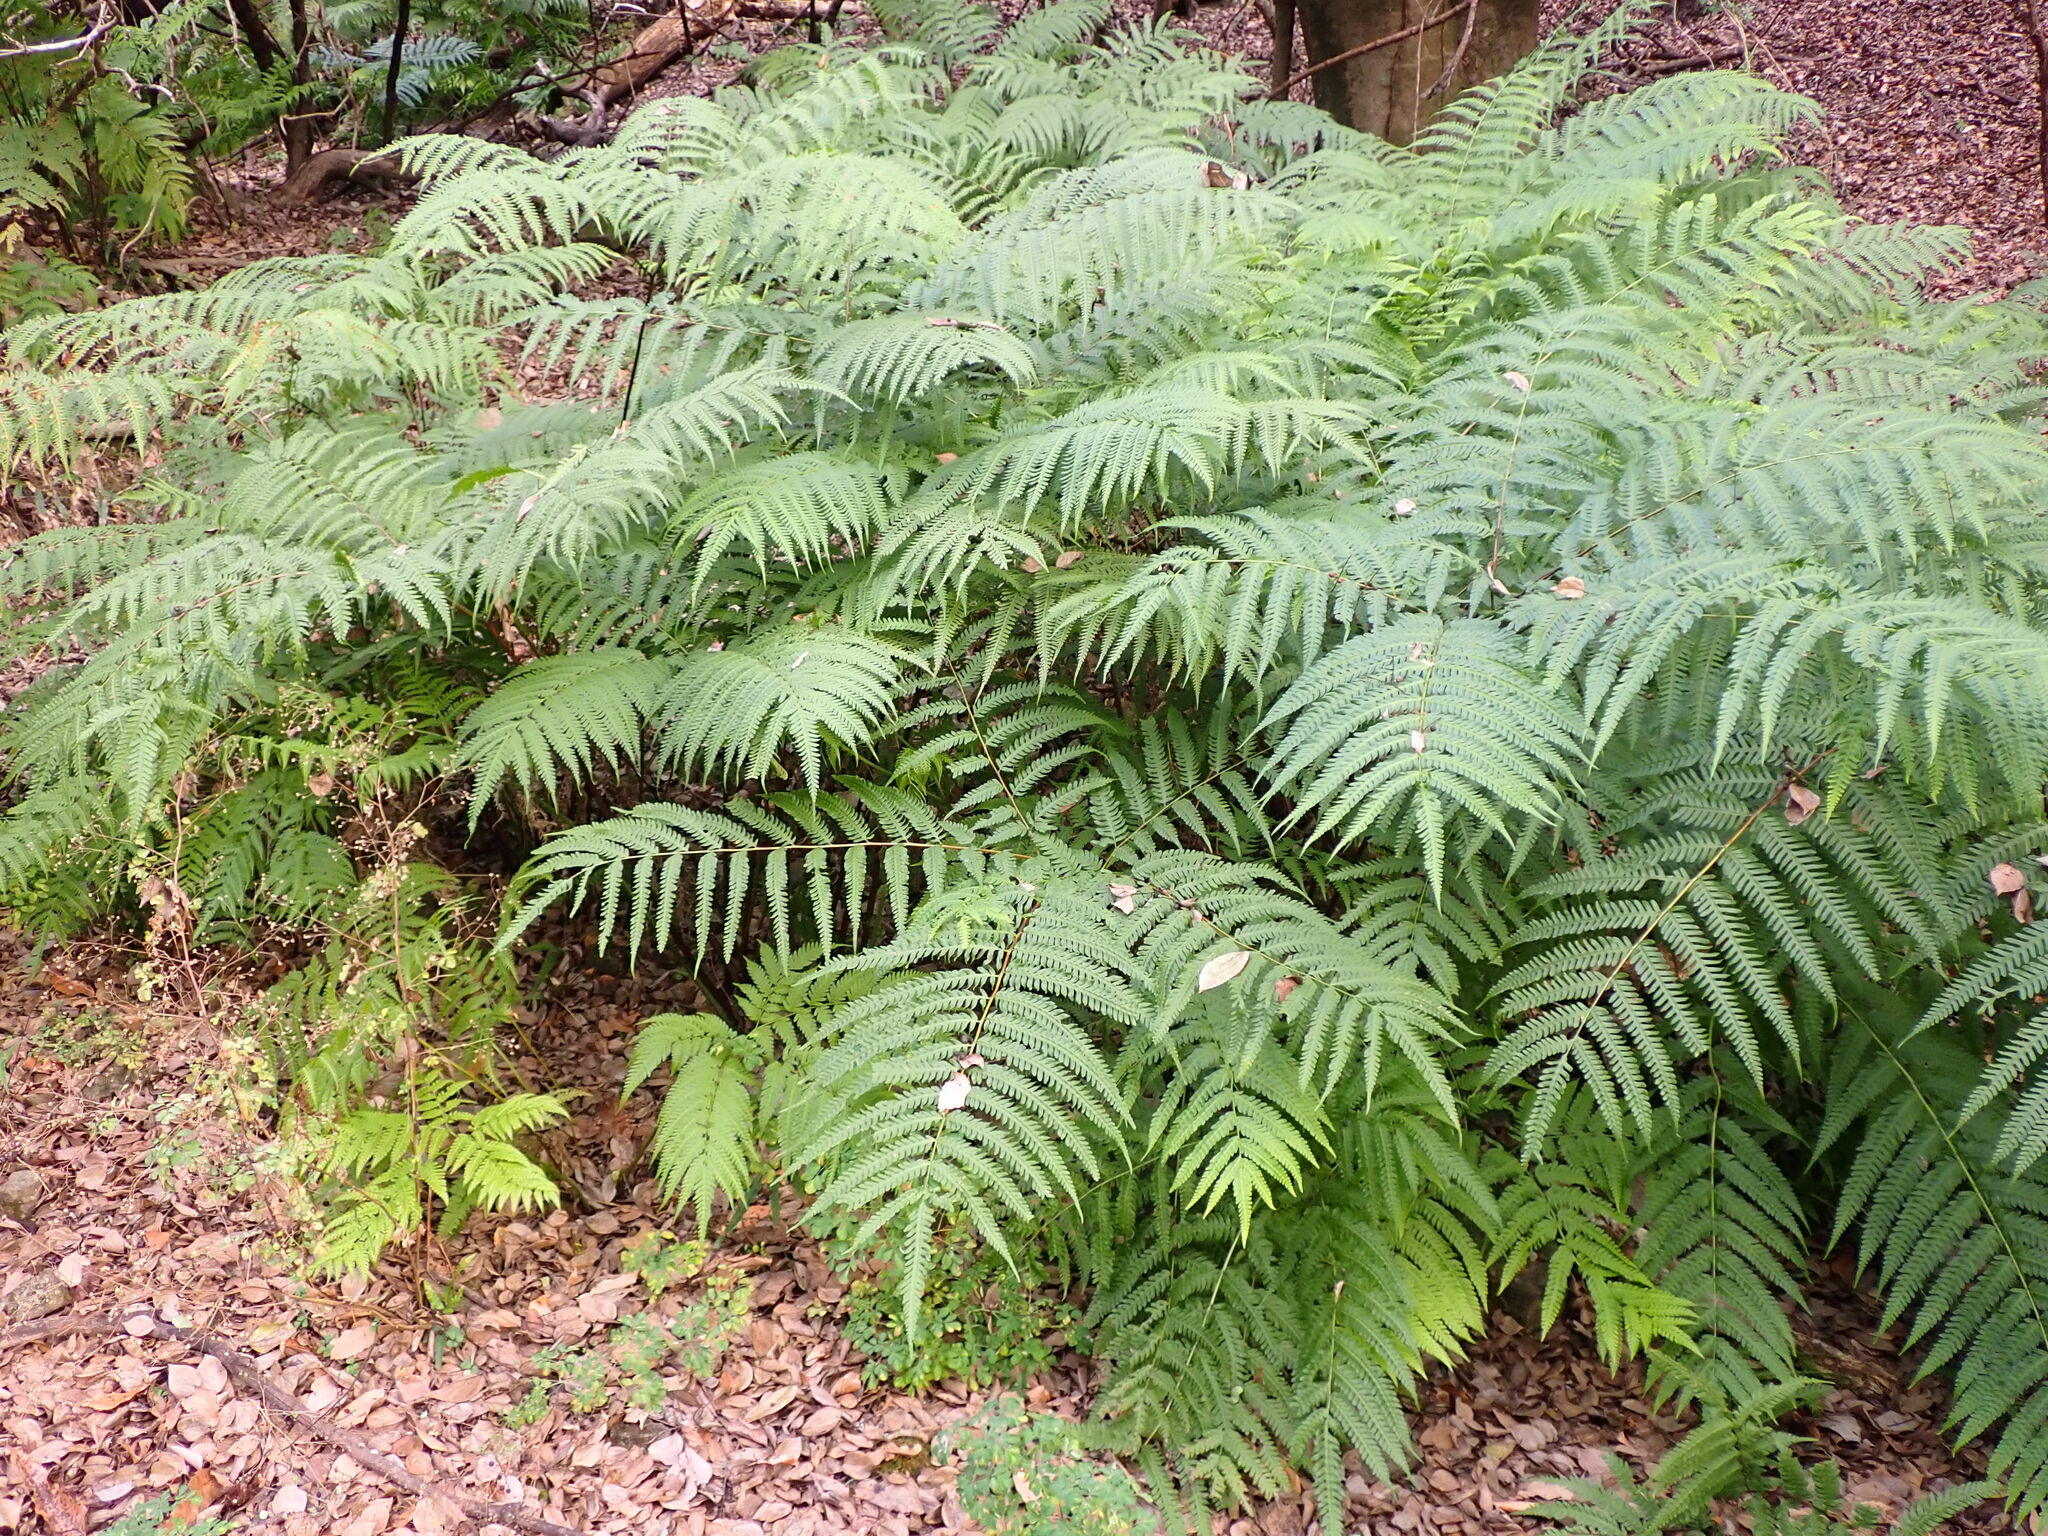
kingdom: Plantae
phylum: Tracheophyta
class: Polypodiopsida
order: Polypodiales
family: Pteridaceae
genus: Pteris
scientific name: Pteris wallichiana
